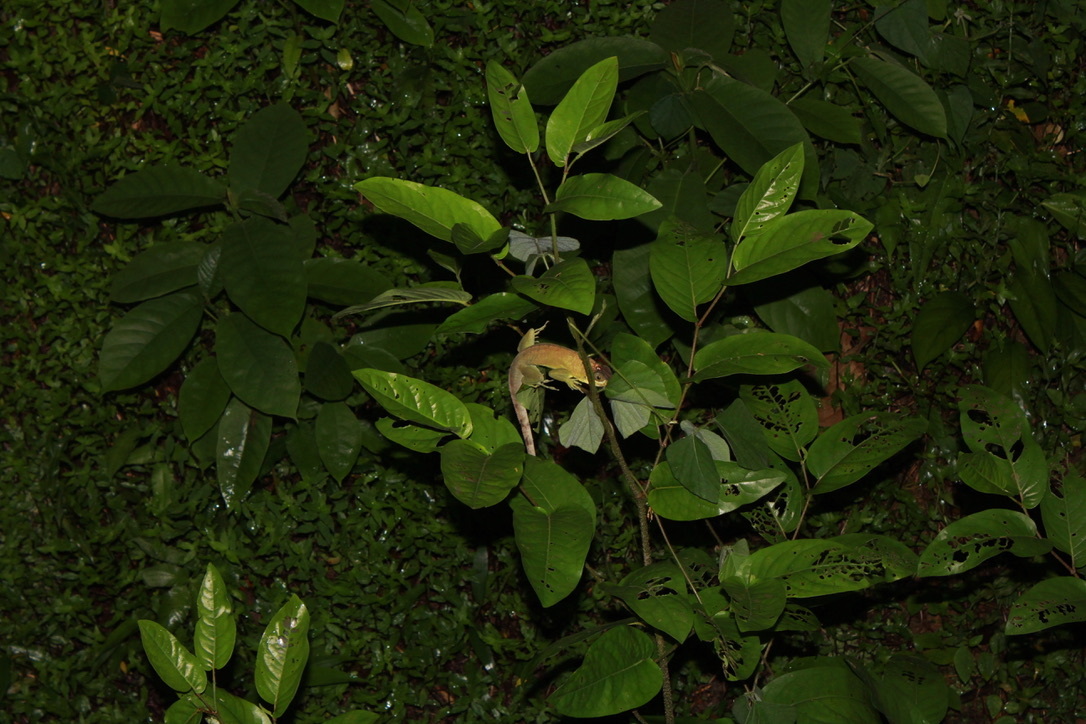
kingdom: Animalia
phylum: Chordata
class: Squamata
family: Dactyloidae
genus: Anolis
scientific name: Anolis richardii
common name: Grenada tree anole
